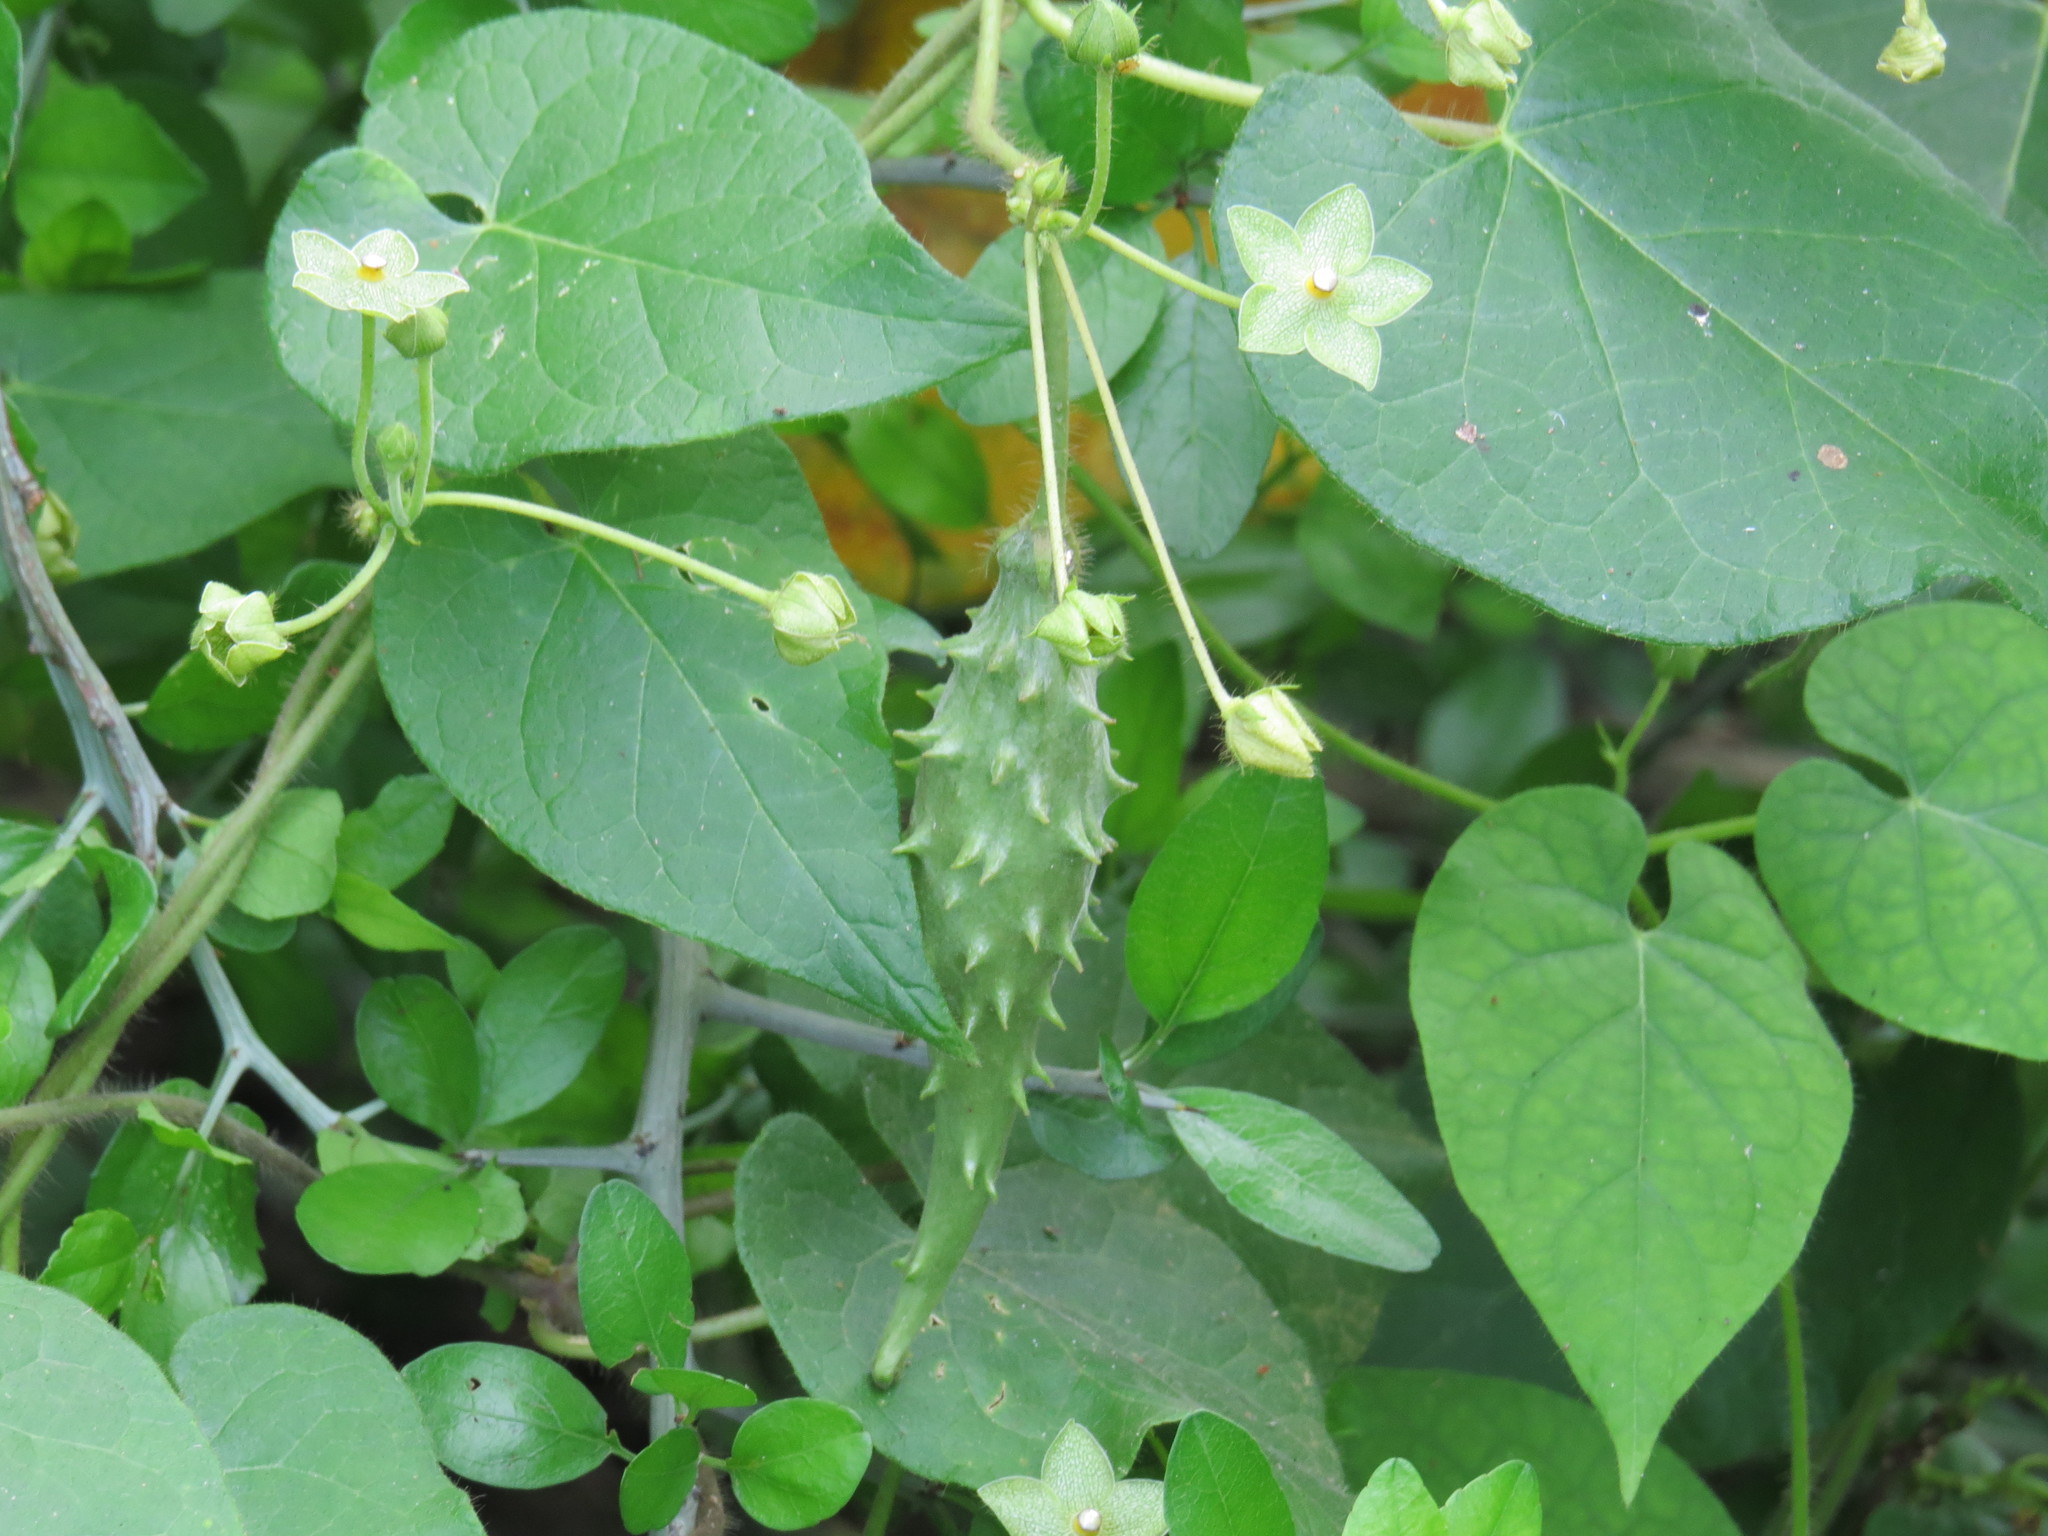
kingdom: Plantae
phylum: Tracheophyta
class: Magnoliopsida
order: Gentianales
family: Apocynaceae
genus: Dictyanthus
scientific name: Dictyanthus reticulatus
